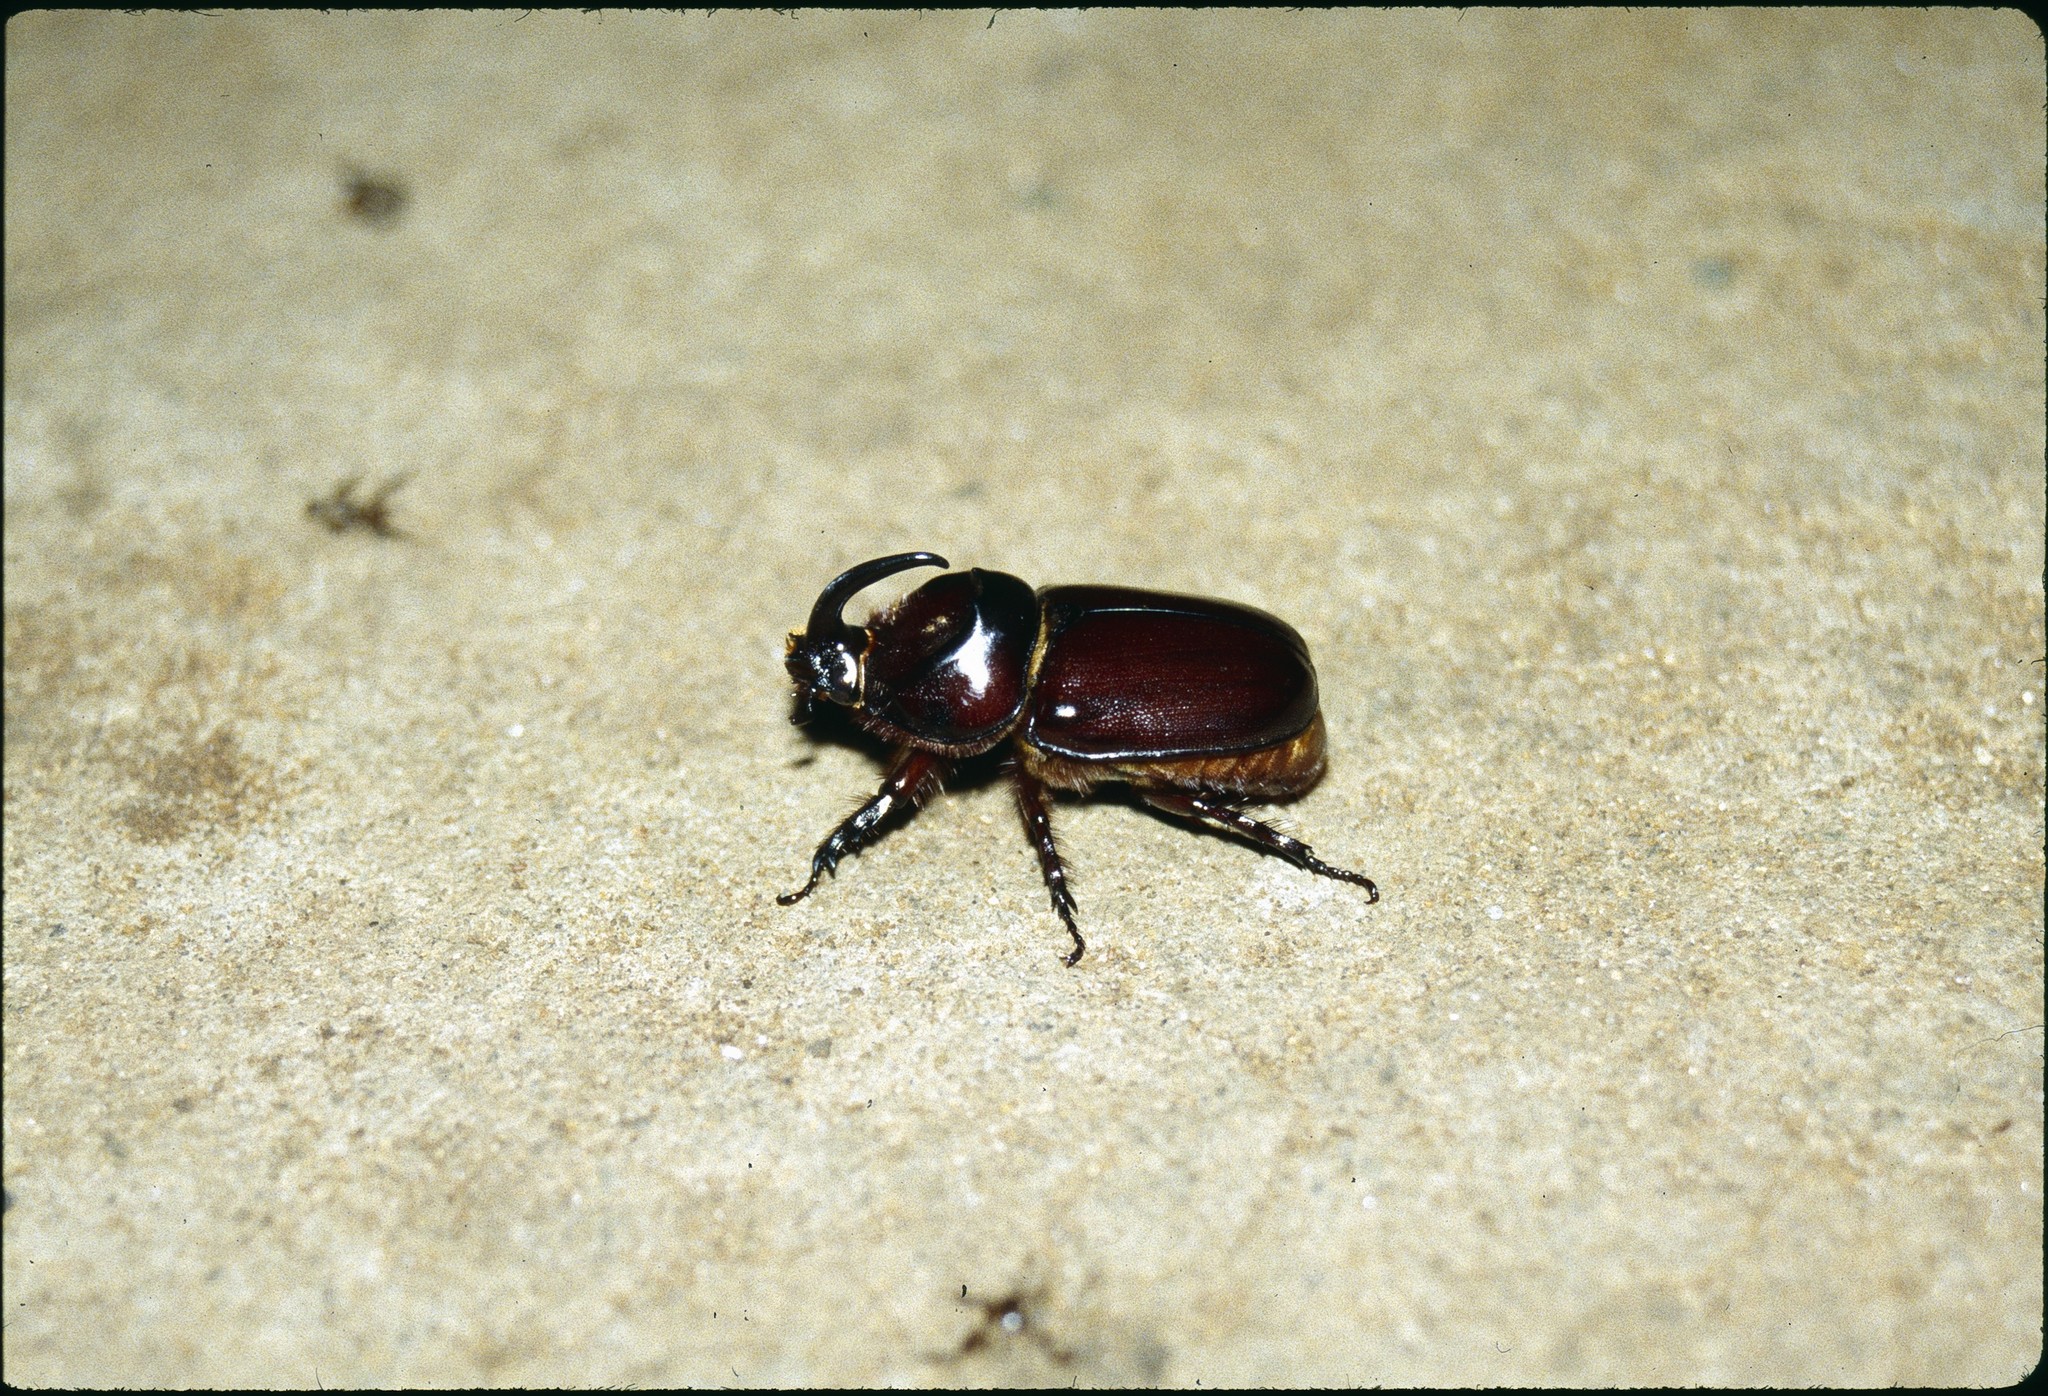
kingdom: Animalia
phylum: Arthropoda
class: Insecta
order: Coleoptera
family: Scarabaeidae
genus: Oryctes
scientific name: Oryctes boas
